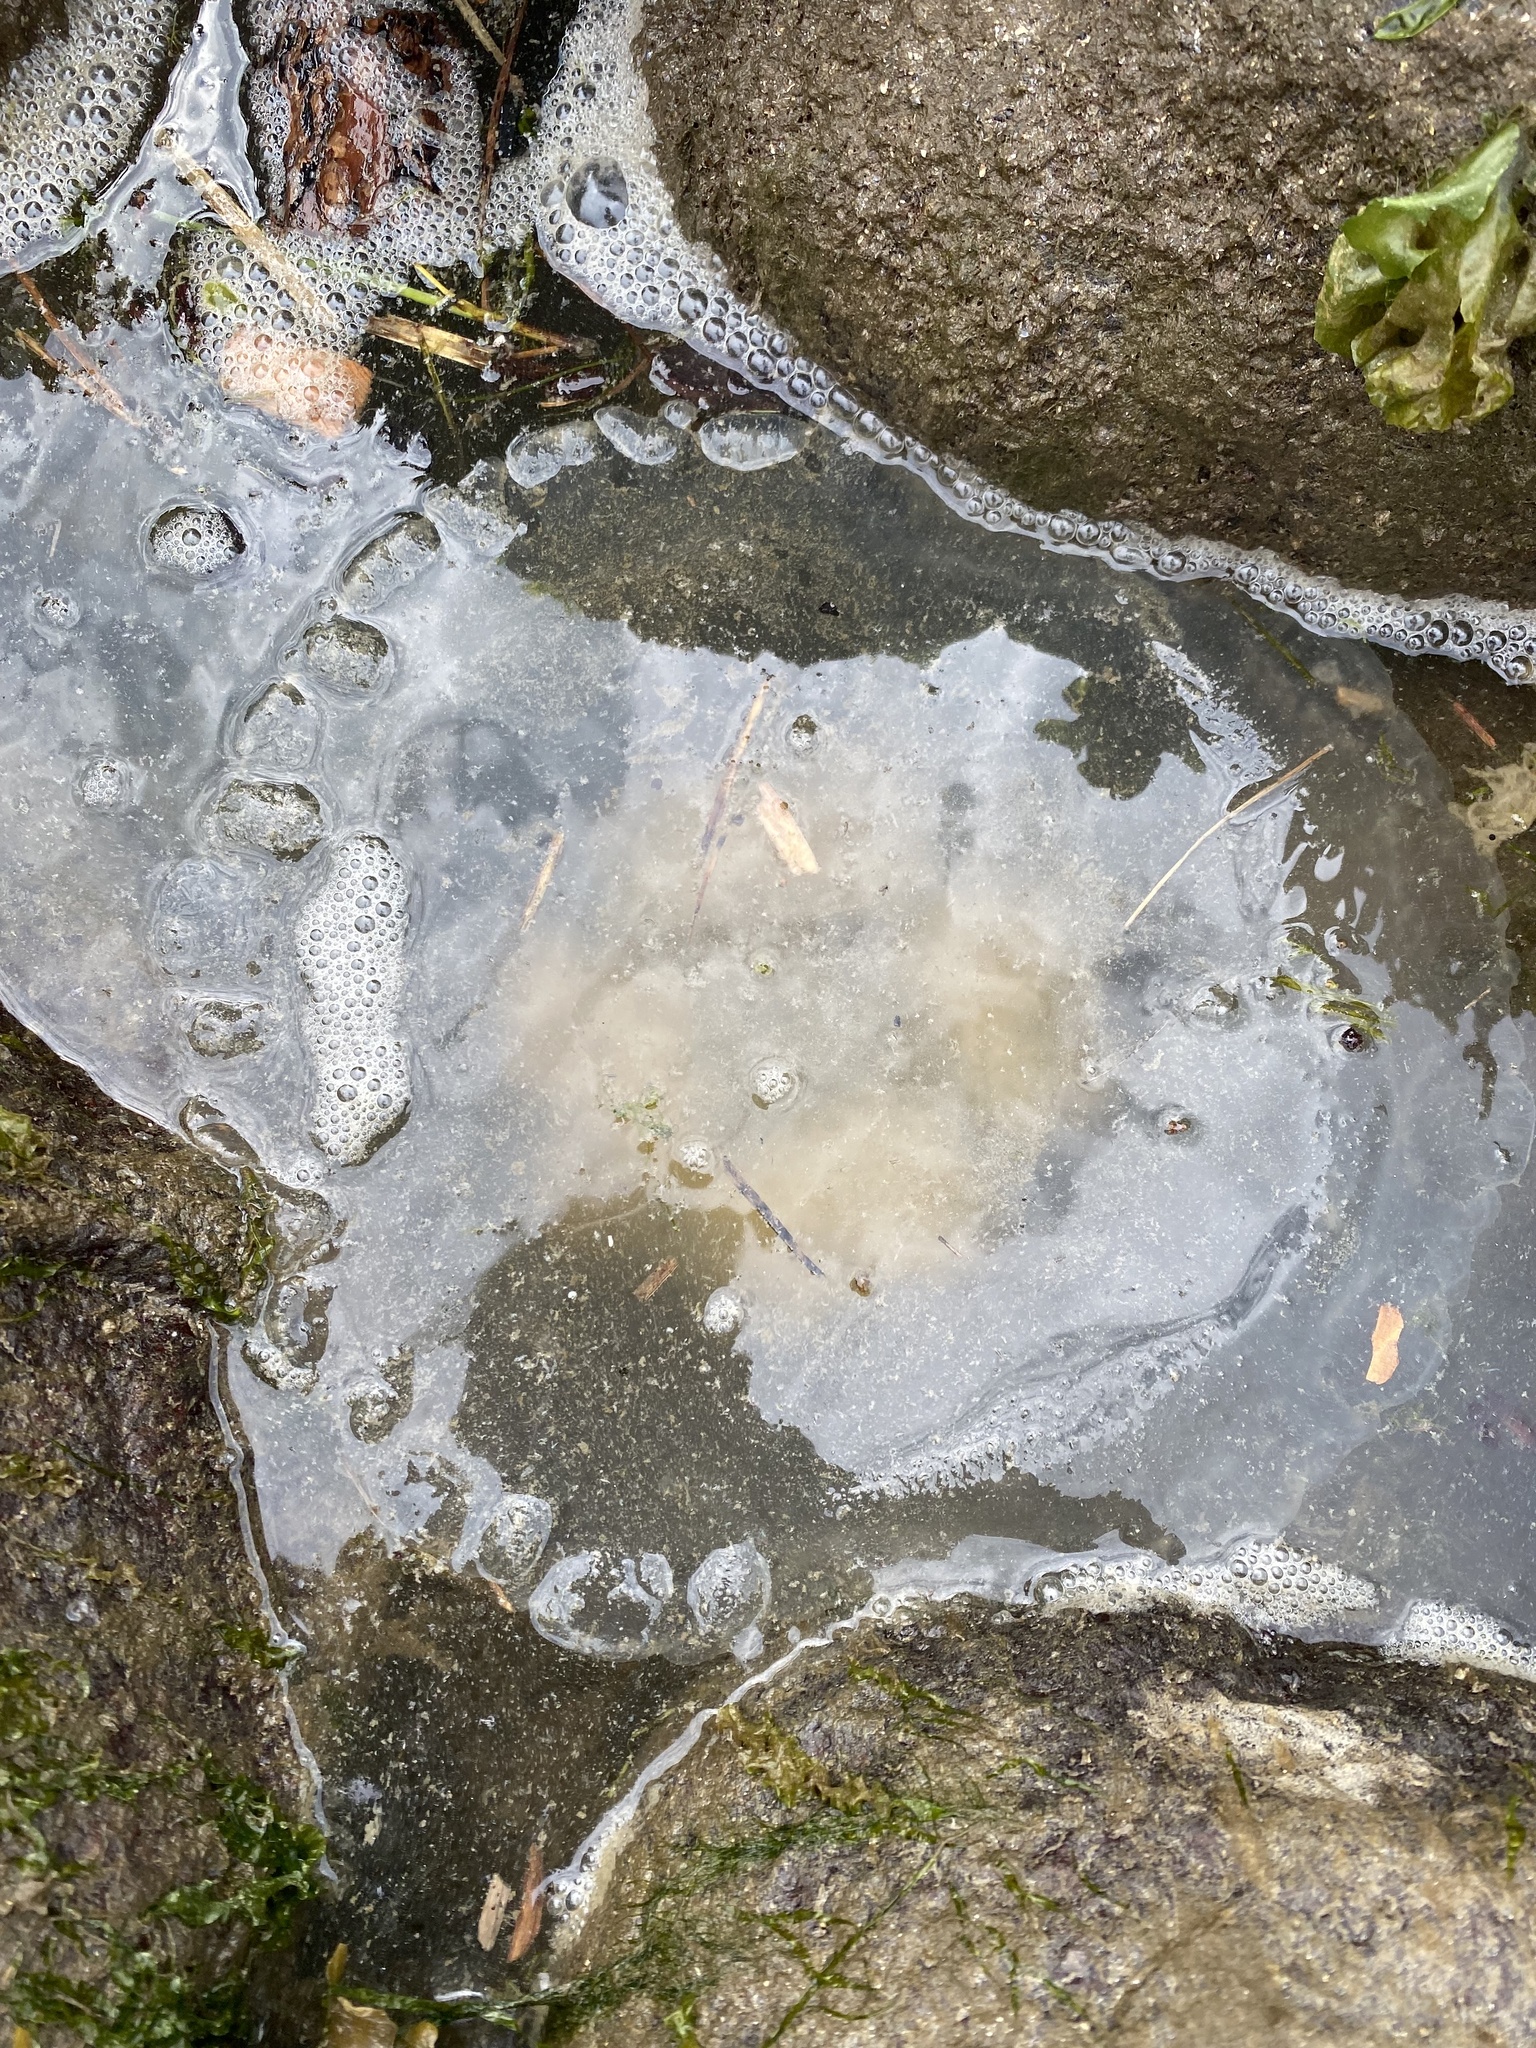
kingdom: Animalia
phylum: Cnidaria
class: Scyphozoa
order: Semaeostomeae
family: Phacellophoridae
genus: Phacellophora
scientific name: Phacellophora camtschatica
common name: Fried-egg jellyfish
